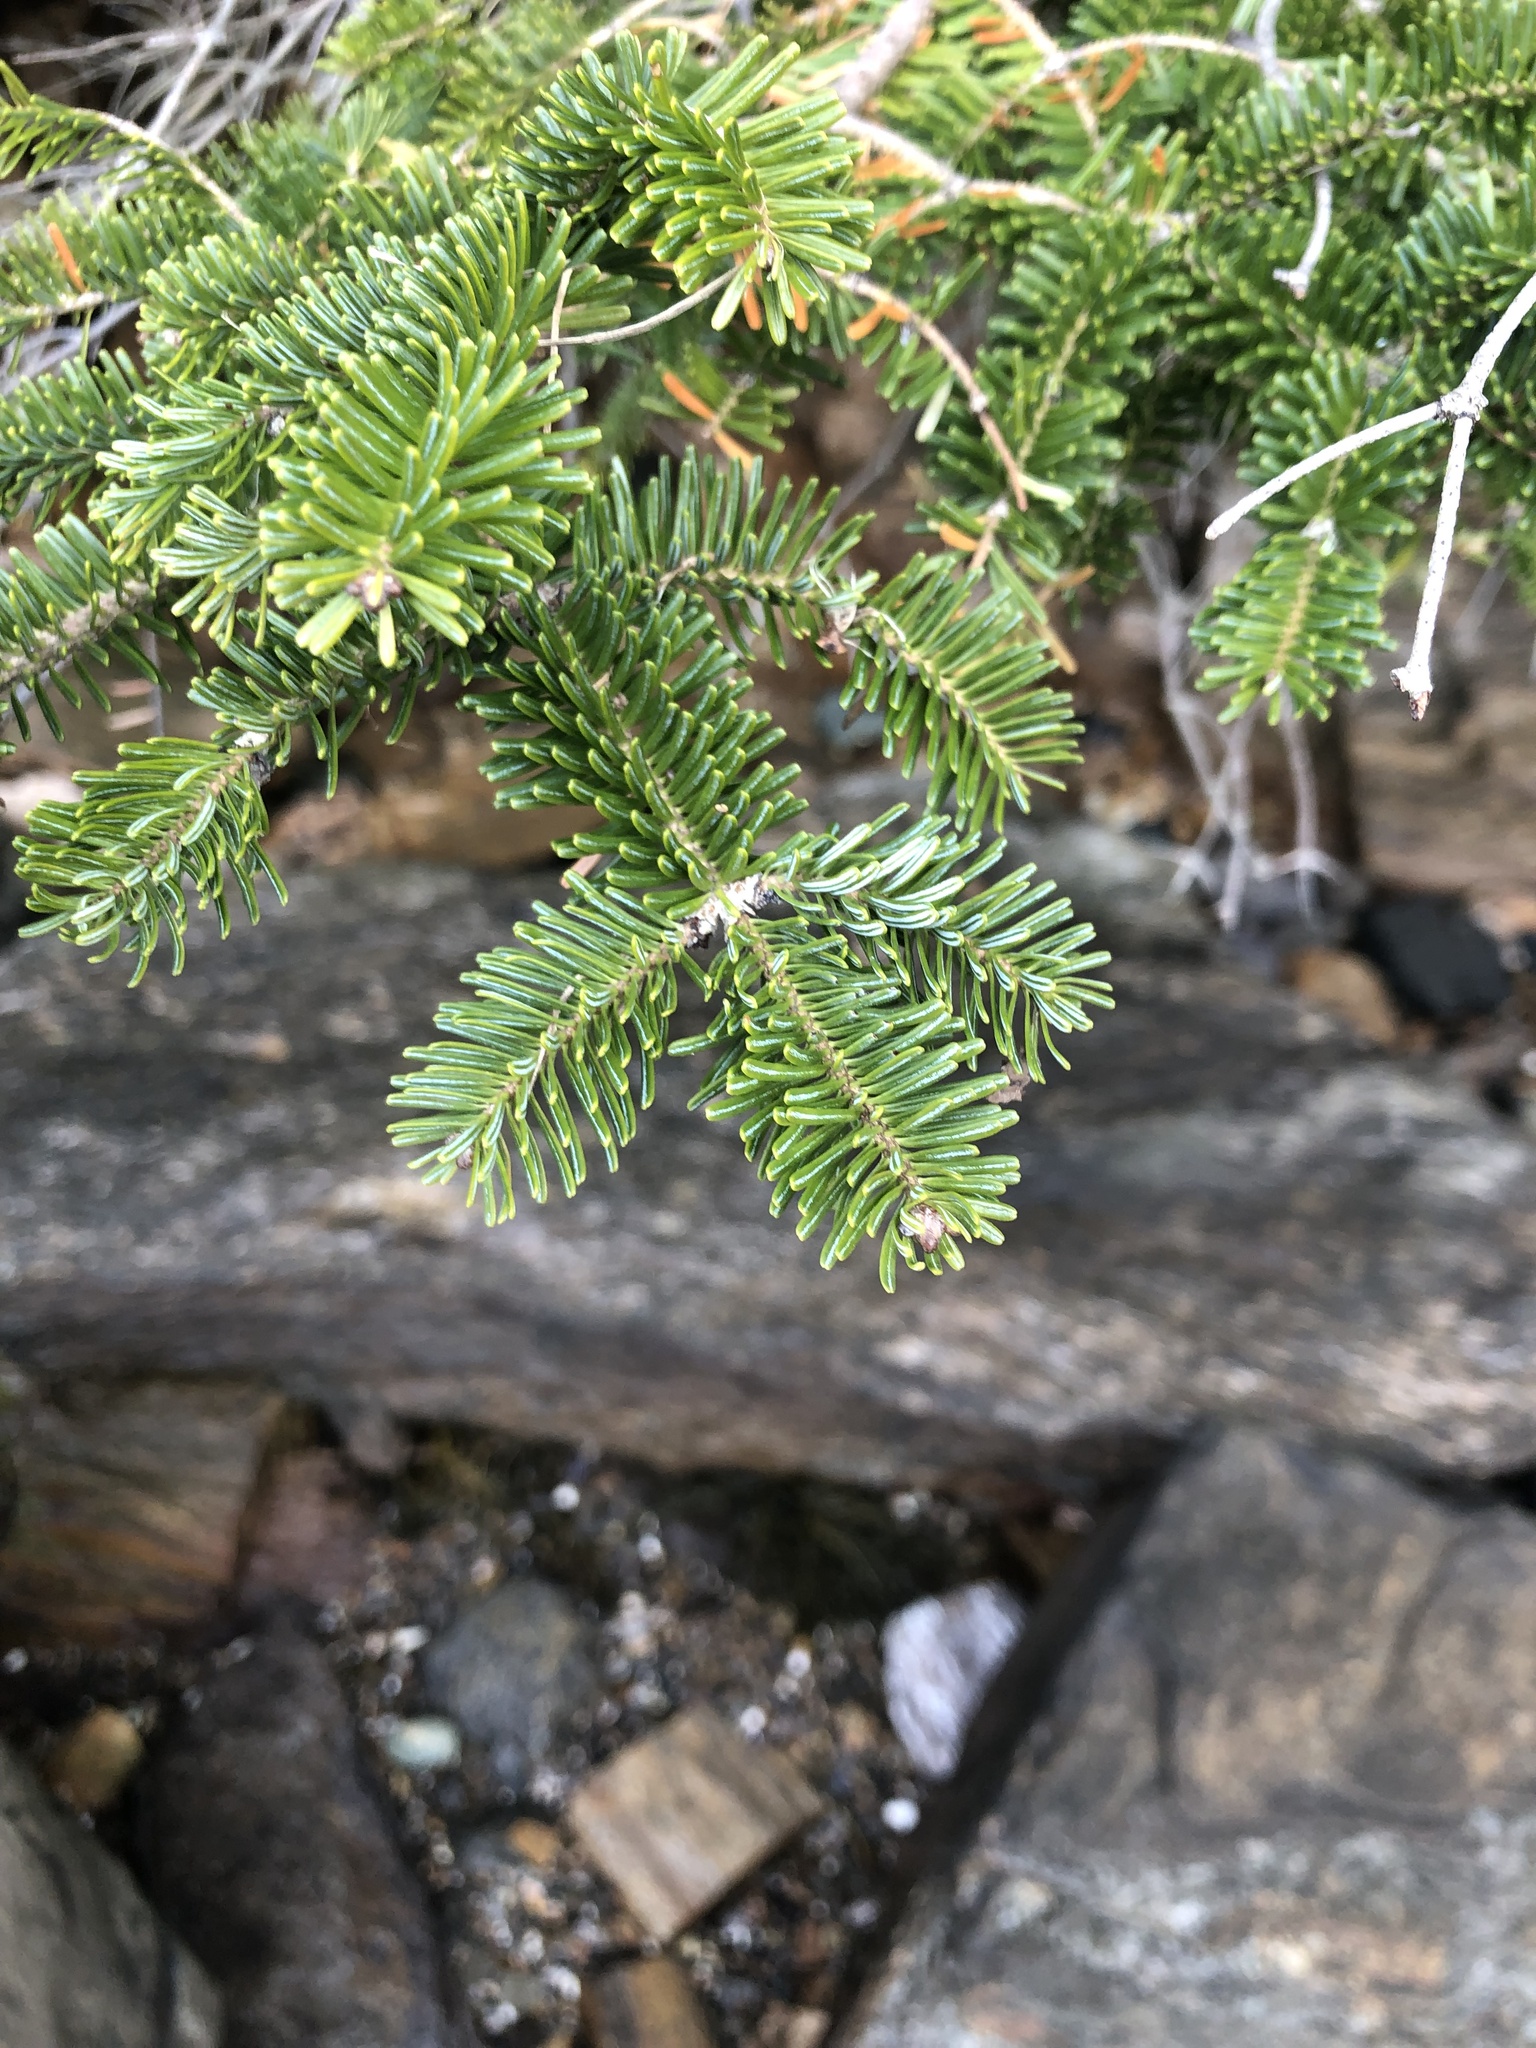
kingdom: Plantae
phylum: Tracheophyta
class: Pinopsida
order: Pinales
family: Pinaceae
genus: Abies
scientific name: Abies balsamea
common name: Balsam fir
